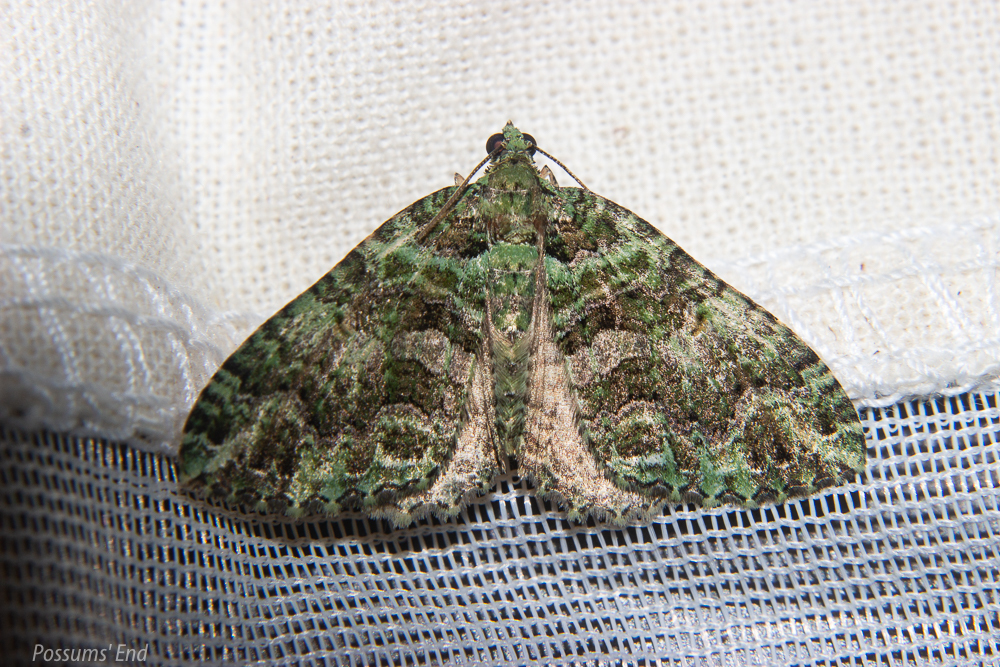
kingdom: Animalia
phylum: Arthropoda
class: Insecta
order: Lepidoptera
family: Geometridae
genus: Austrocidaria
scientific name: Austrocidaria similata
